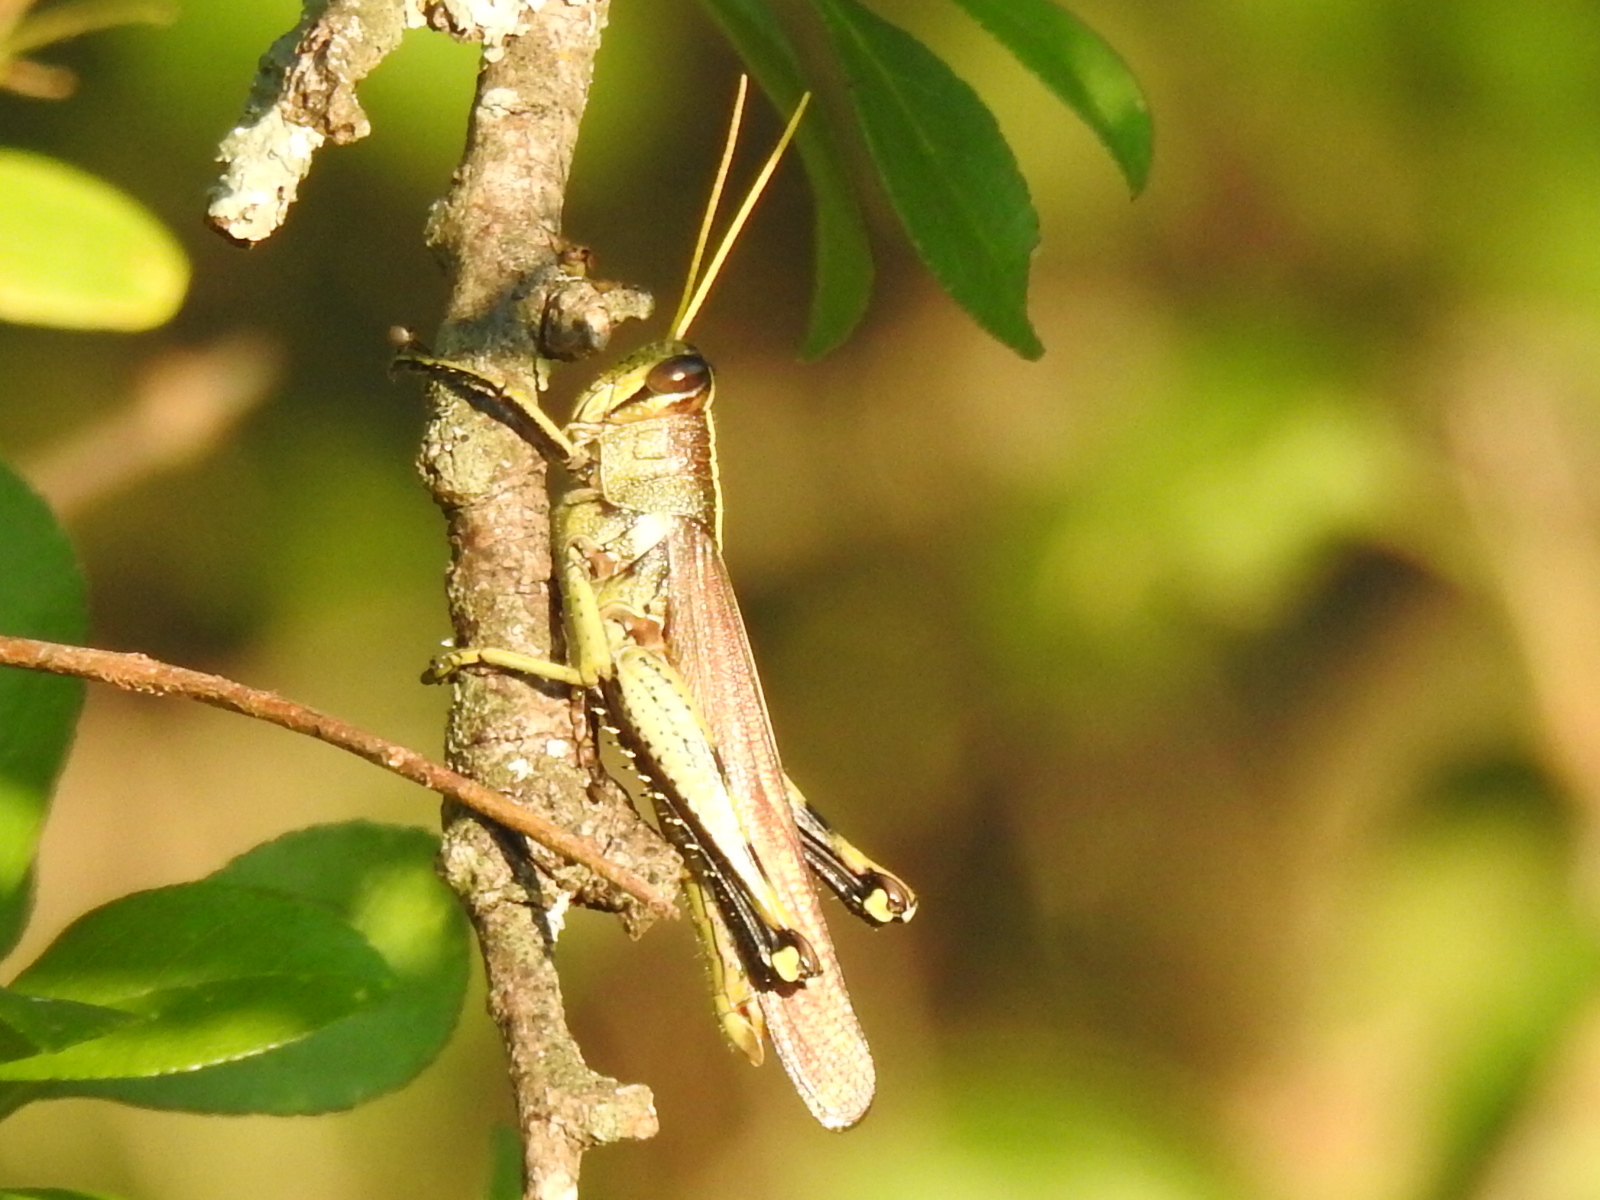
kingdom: Animalia
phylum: Arthropoda
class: Insecta
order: Orthoptera
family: Acrididae
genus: Schistocerca
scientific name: Schistocerca obscura
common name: Obscure bird grasshopper
